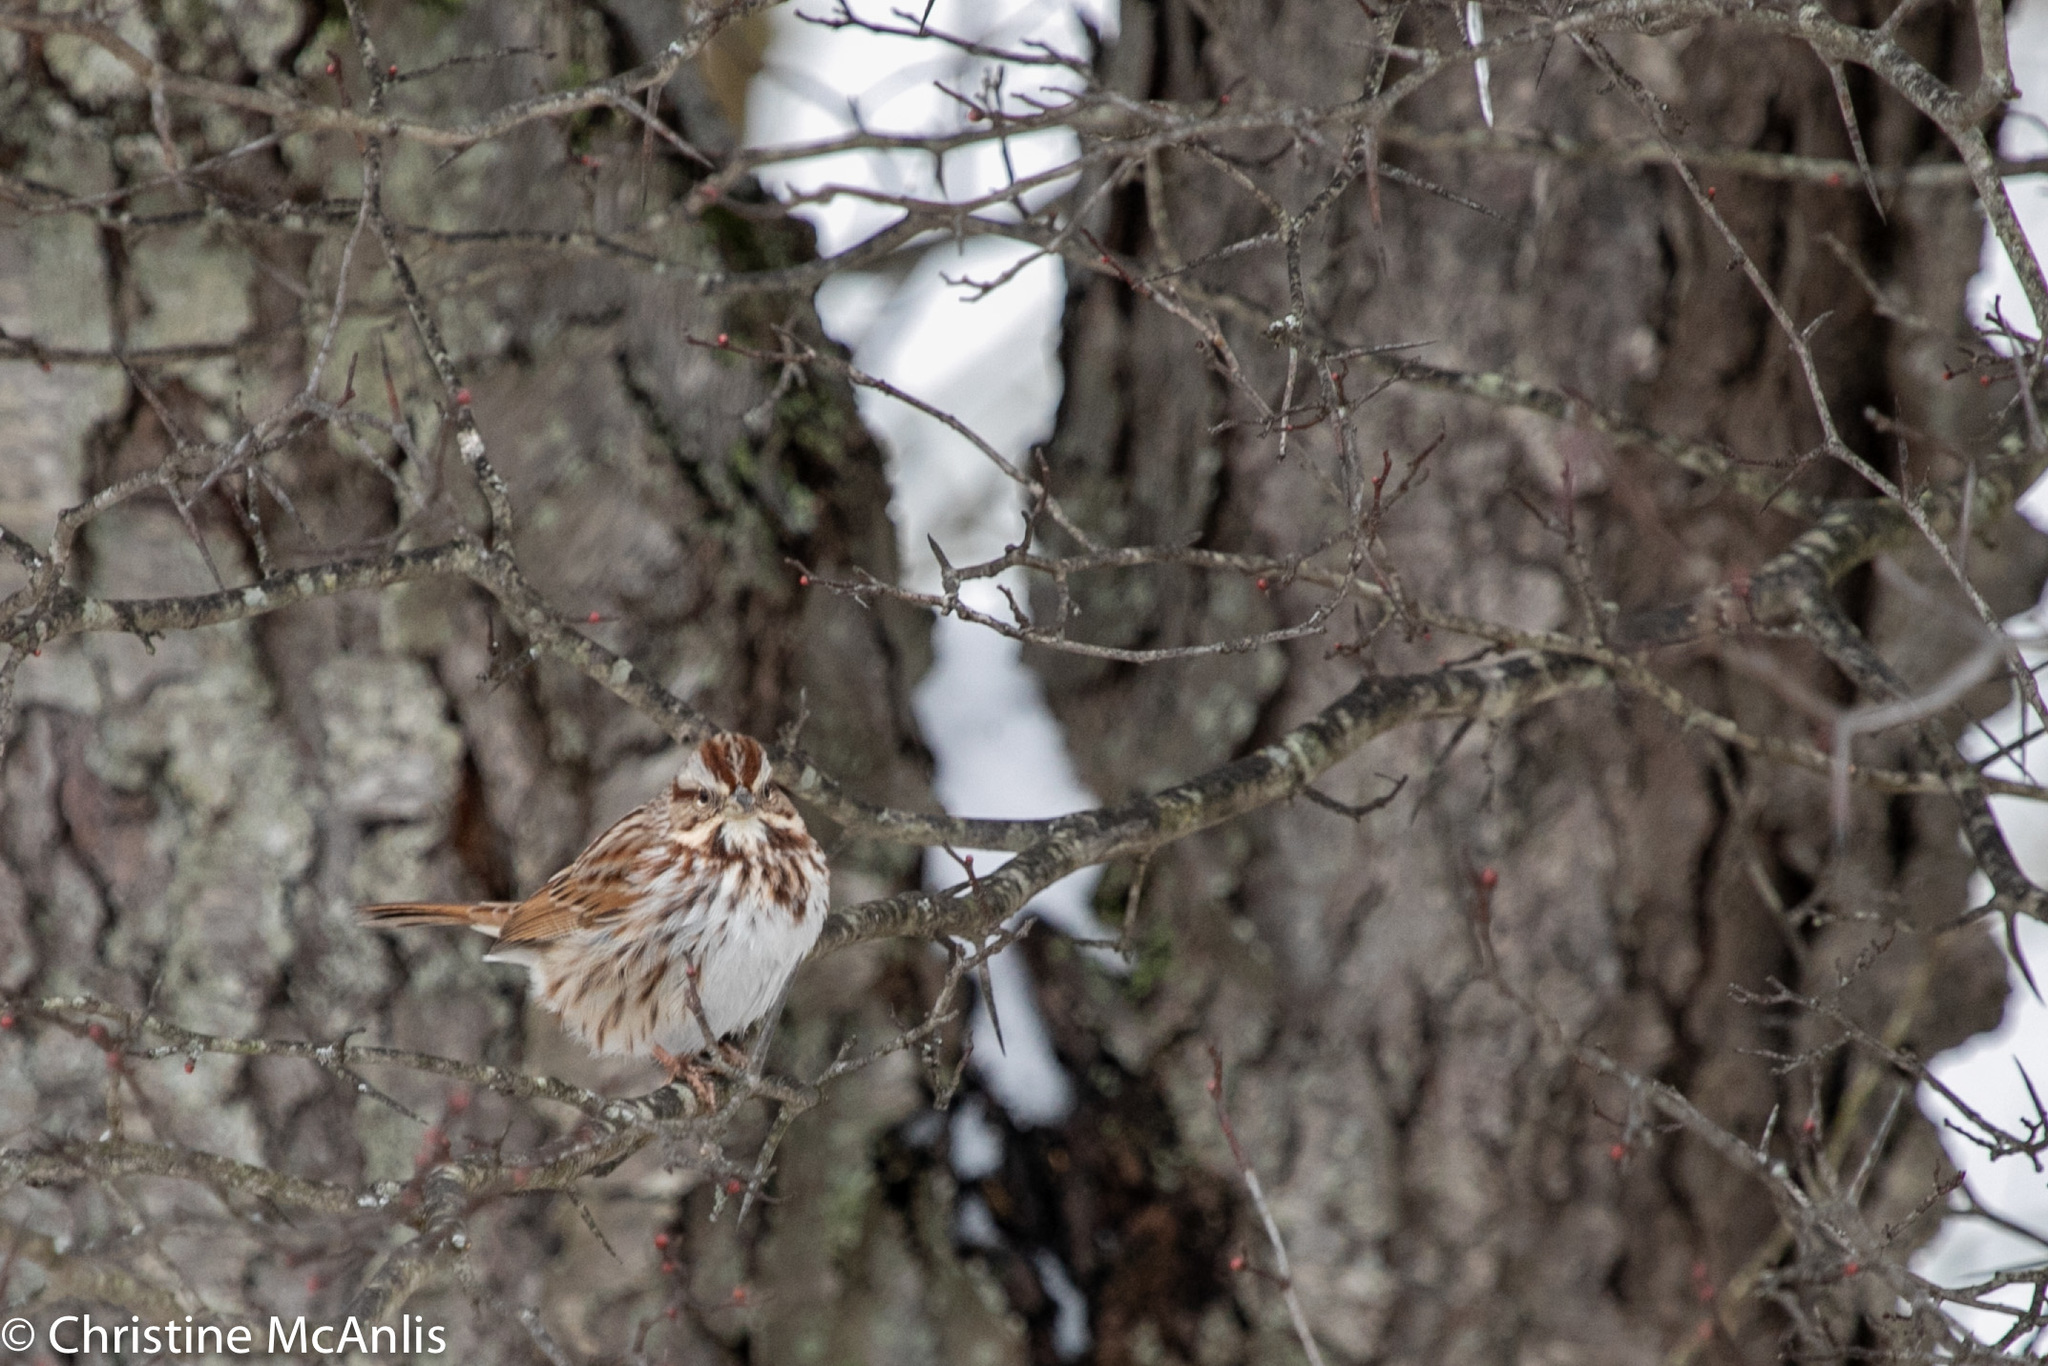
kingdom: Animalia
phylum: Chordata
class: Aves
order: Passeriformes
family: Passerellidae
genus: Melospiza
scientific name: Melospiza melodia
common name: Song sparrow
